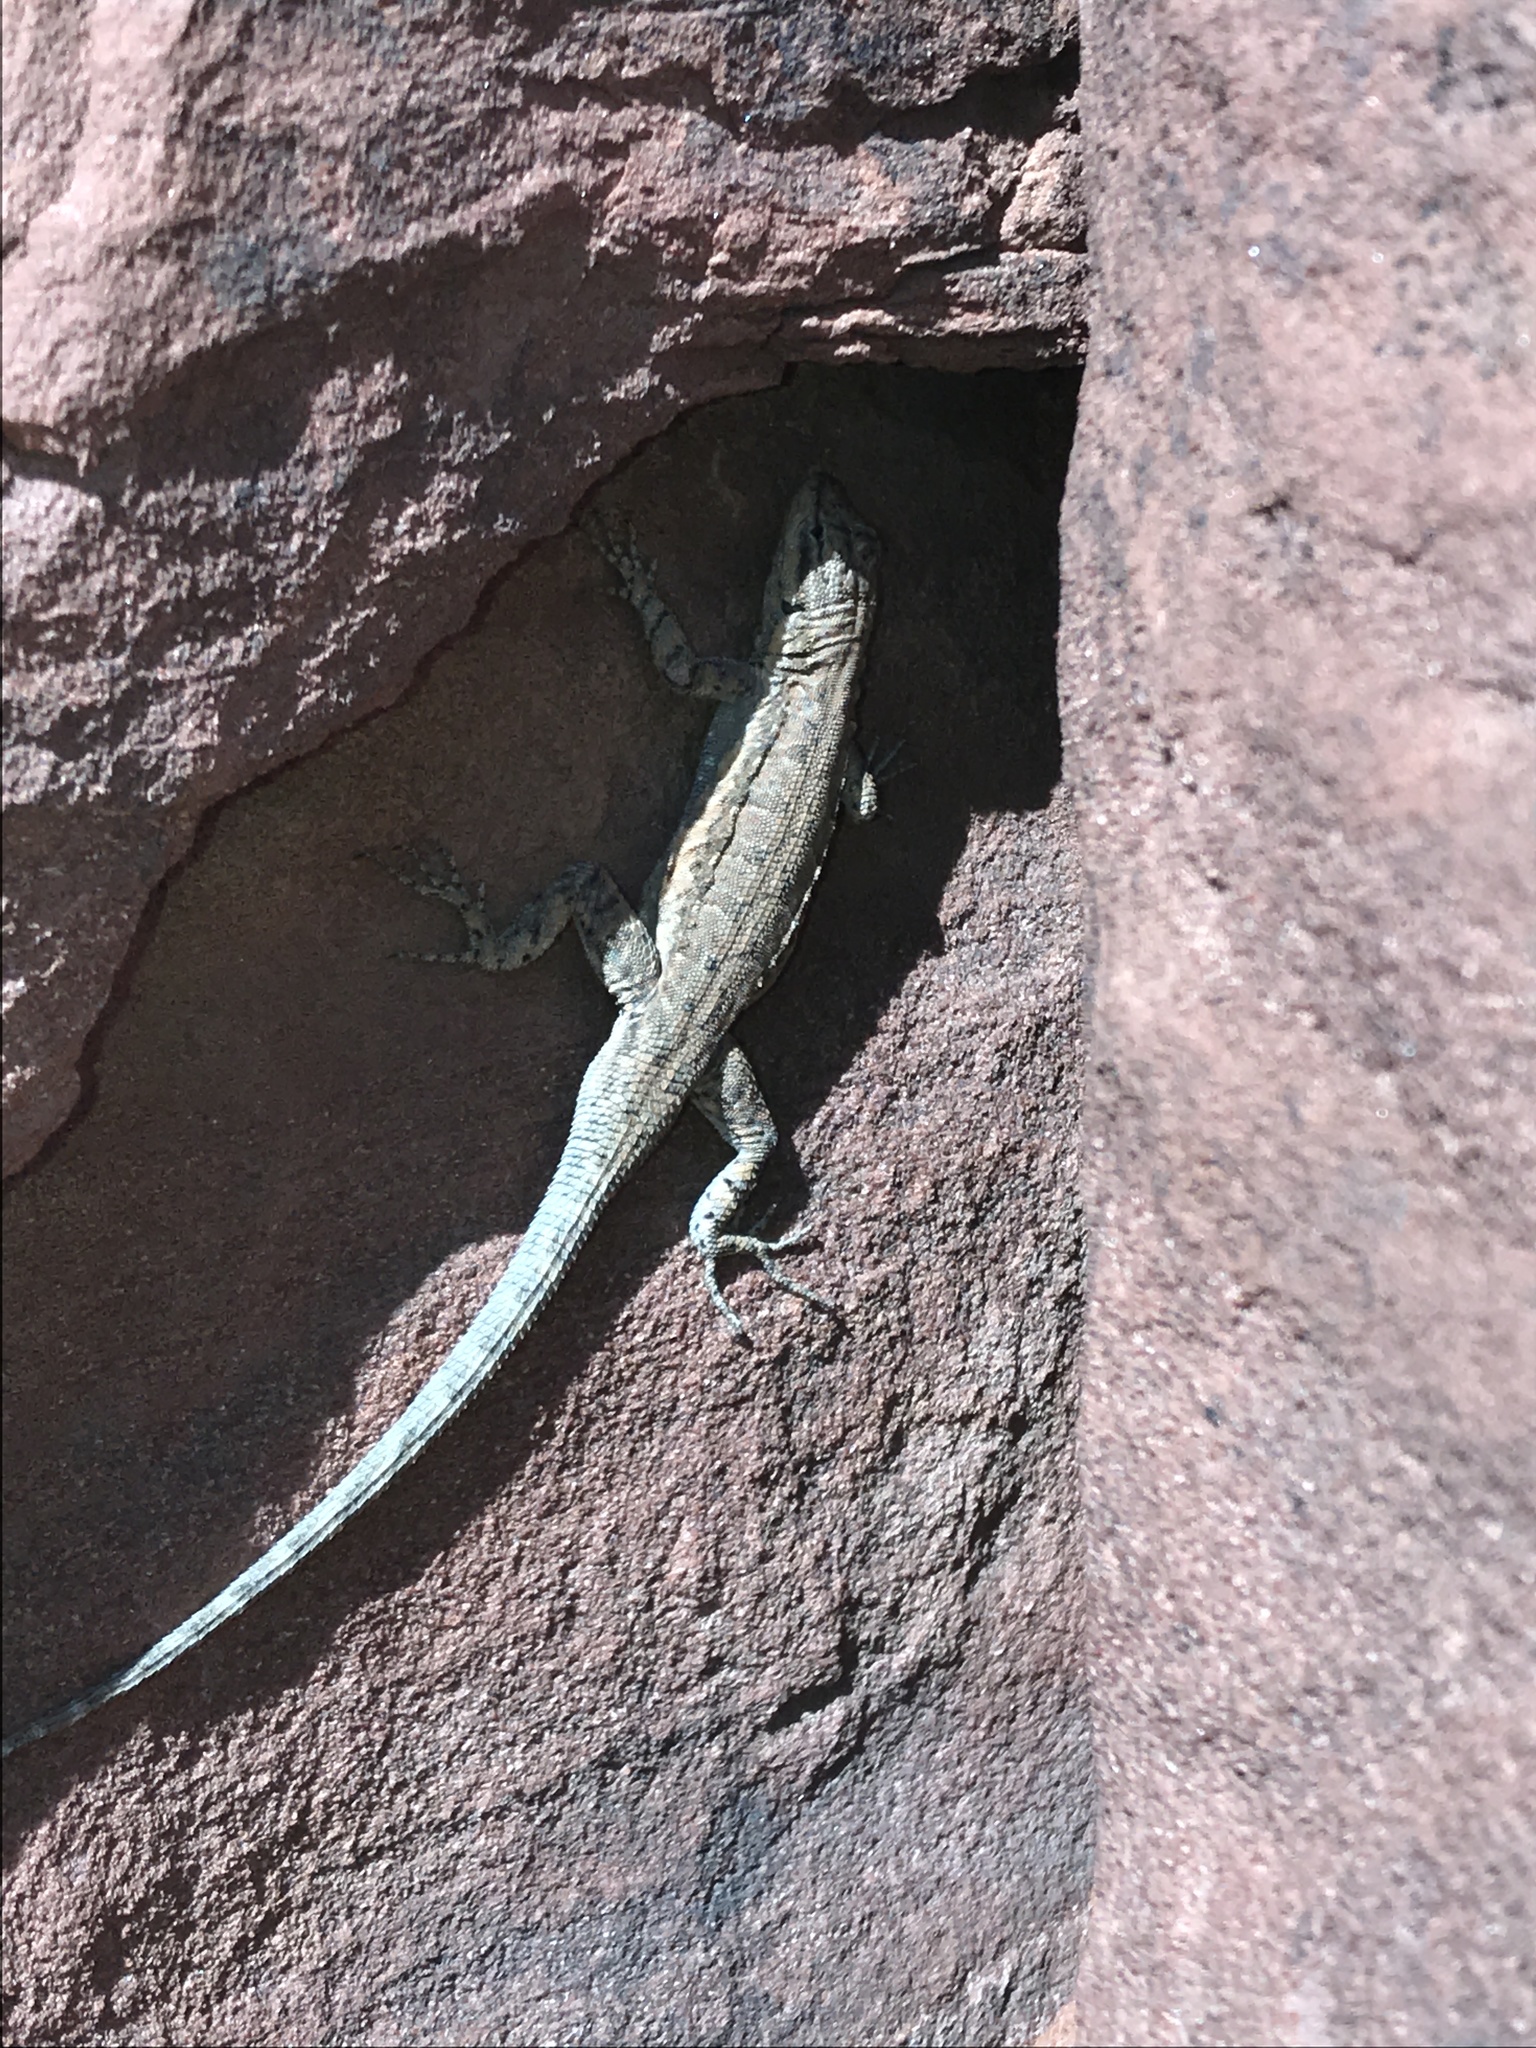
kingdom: Animalia
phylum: Chordata
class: Squamata
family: Phrynosomatidae
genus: Urosaurus
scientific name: Urosaurus ornatus
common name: Ornate tree lizard
